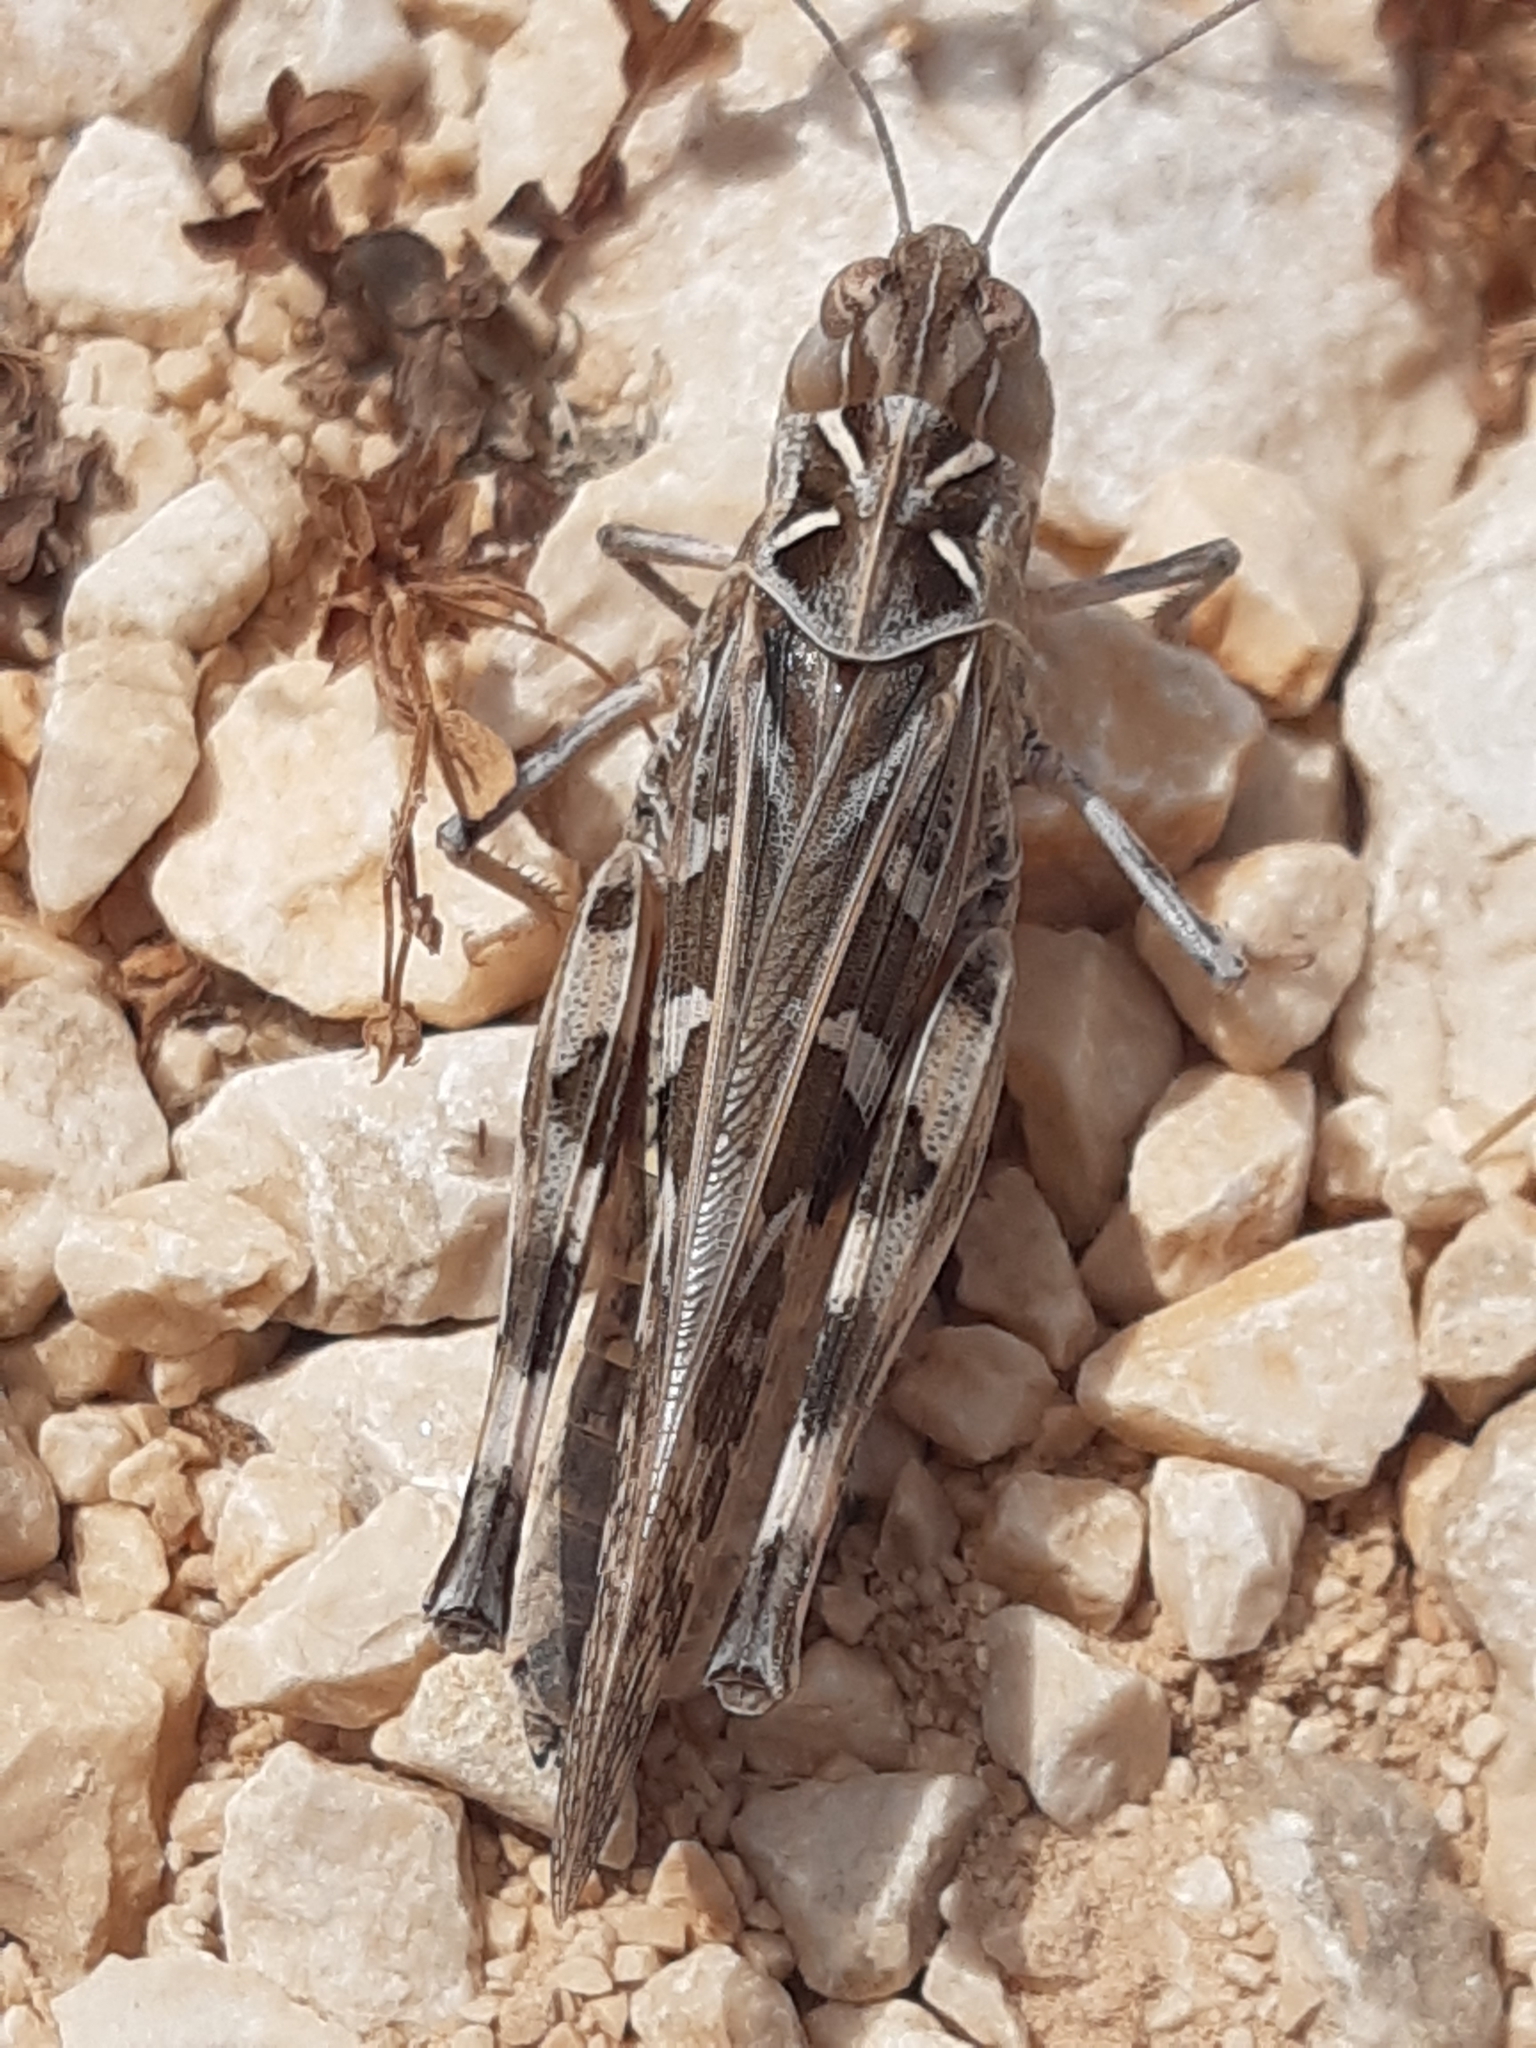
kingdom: Animalia
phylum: Arthropoda
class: Insecta
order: Orthoptera
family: Acrididae
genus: Oedaleus
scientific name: Oedaleus decorus
